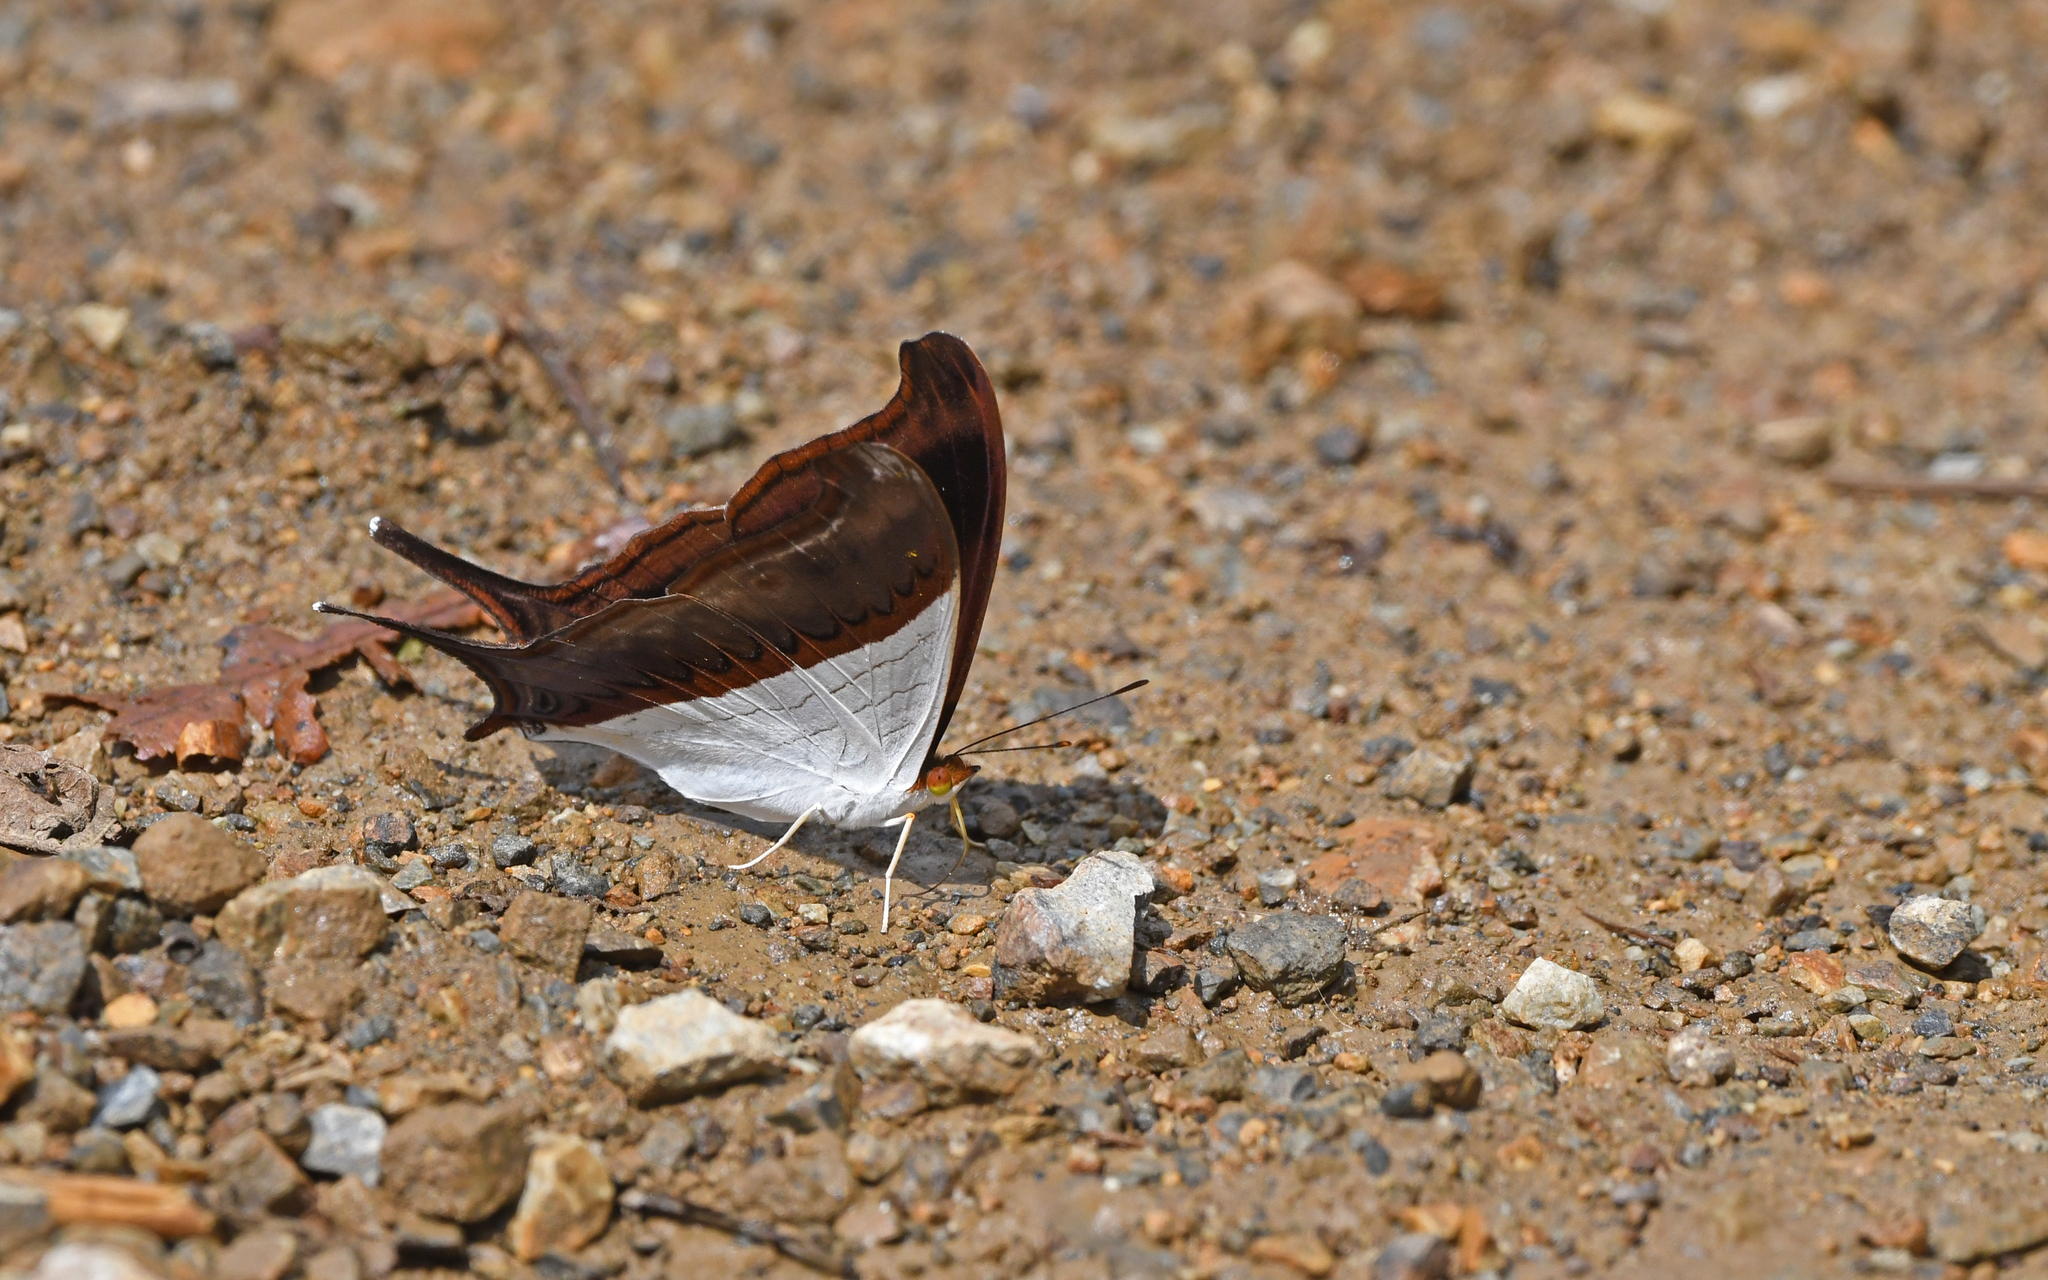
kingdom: Animalia
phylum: Arthropoda
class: Insecta
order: Lepidoptera
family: Nymphalidae
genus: Marpesia
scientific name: Marpesia zerynthia
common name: Waiter daggerwing
